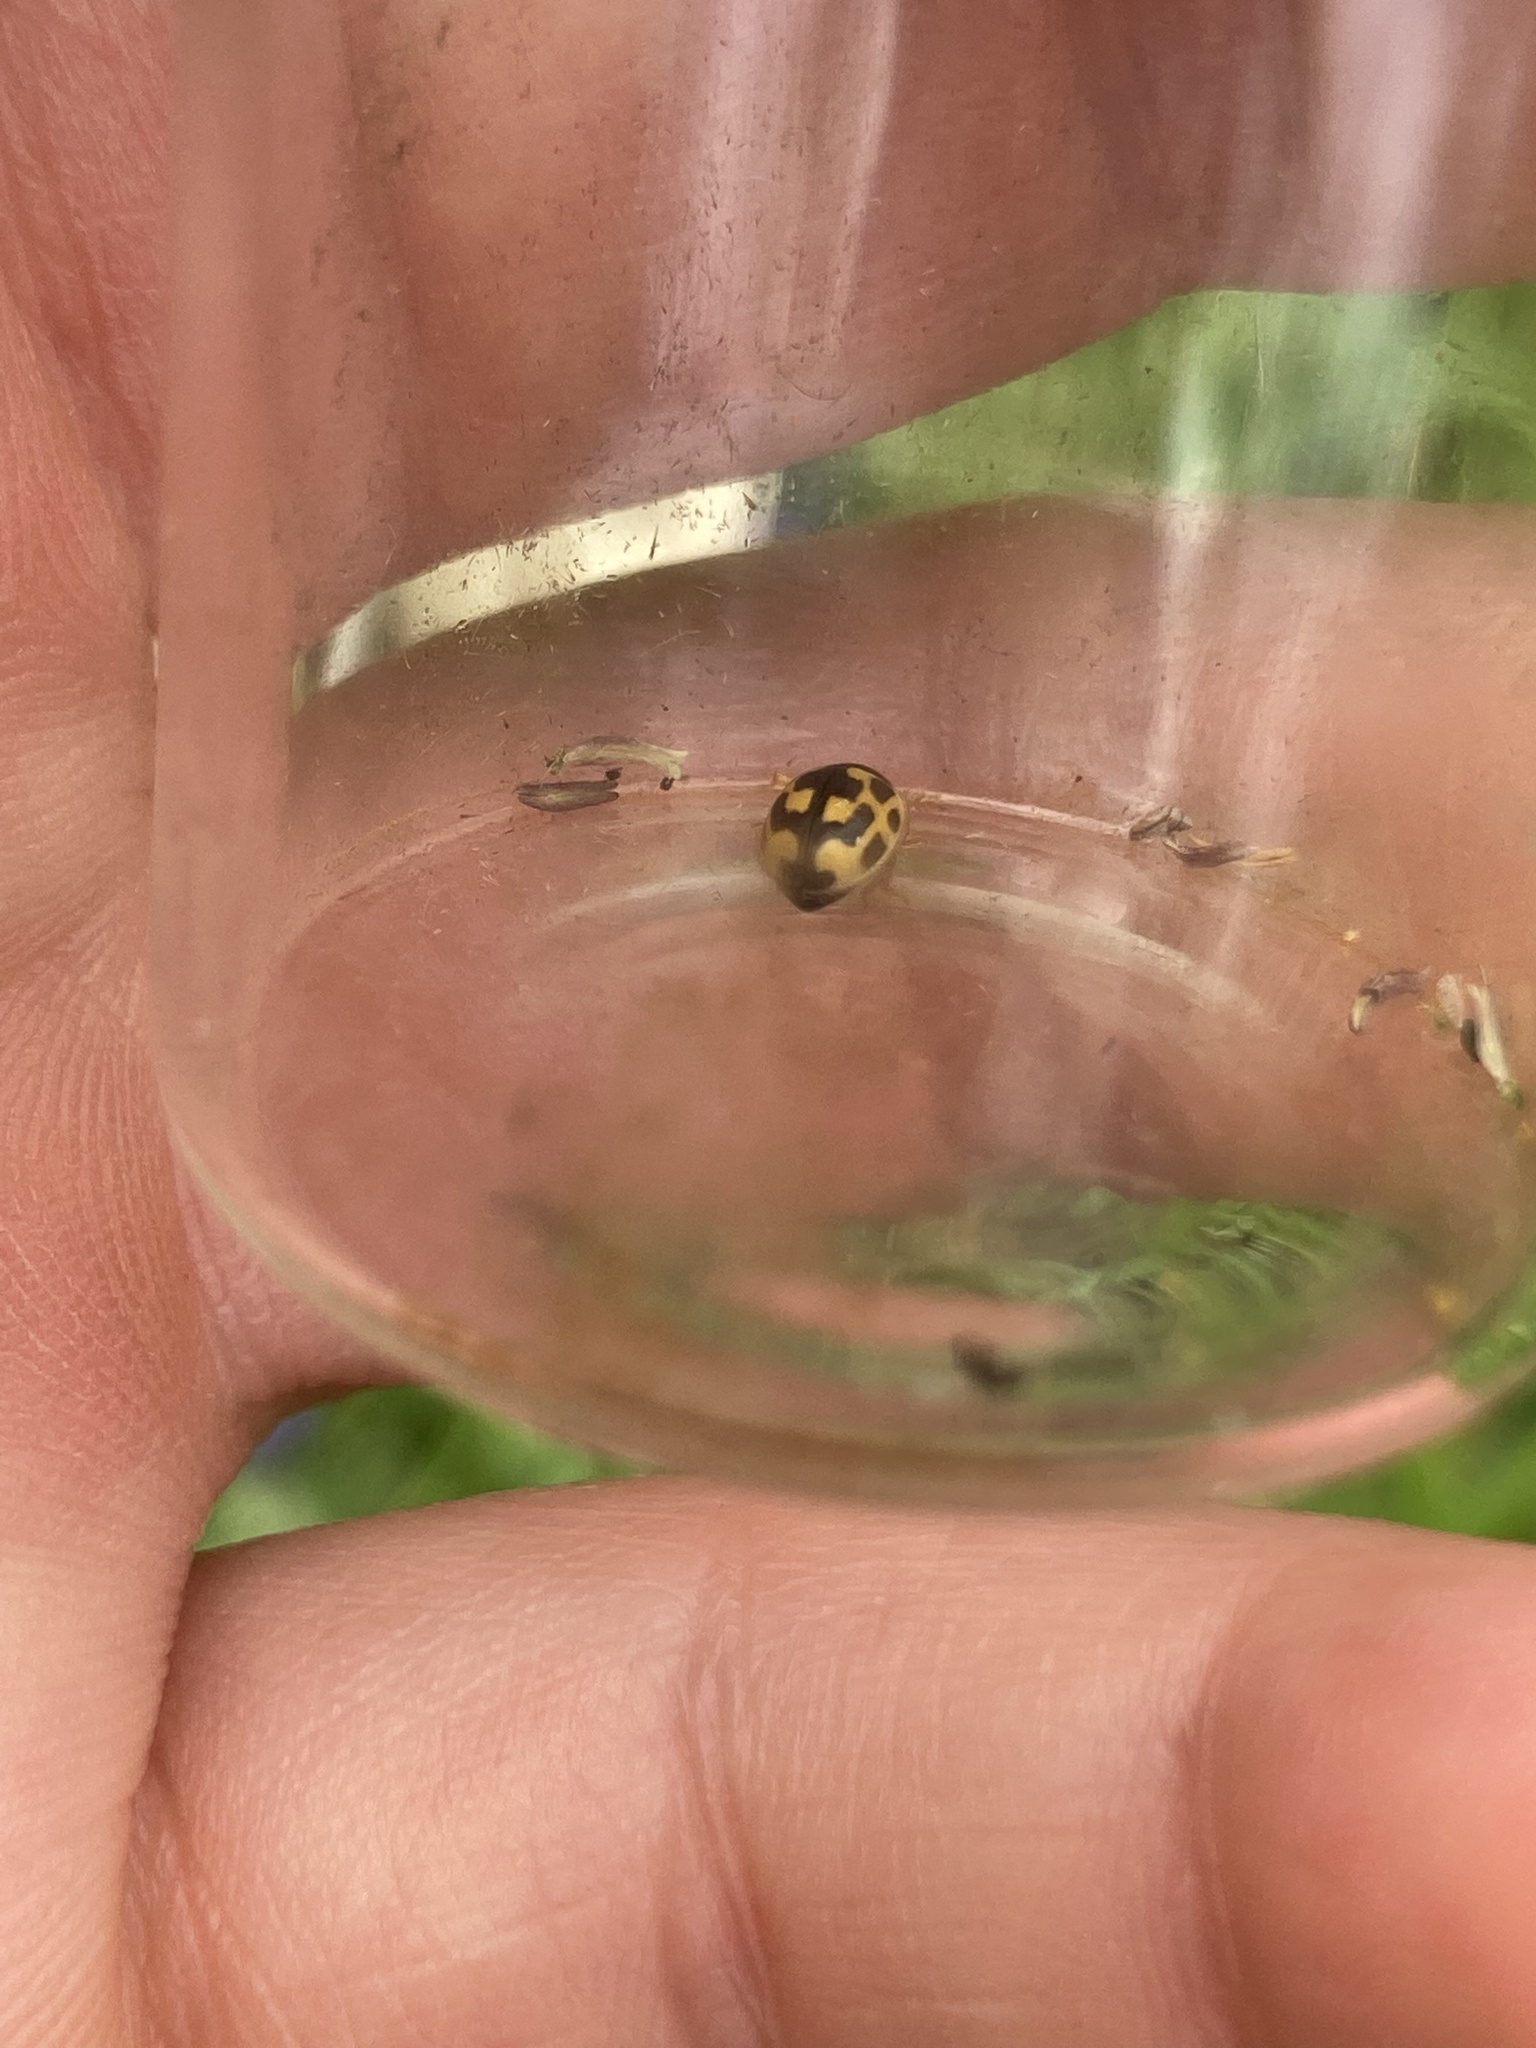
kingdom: Animalia
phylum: Arthropoda
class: Insecta
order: Coleoptera
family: Coccinellidae
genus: Propylaea
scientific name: Propylaea quatuordecimpunctata
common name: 14-spotted ladybird beetle
